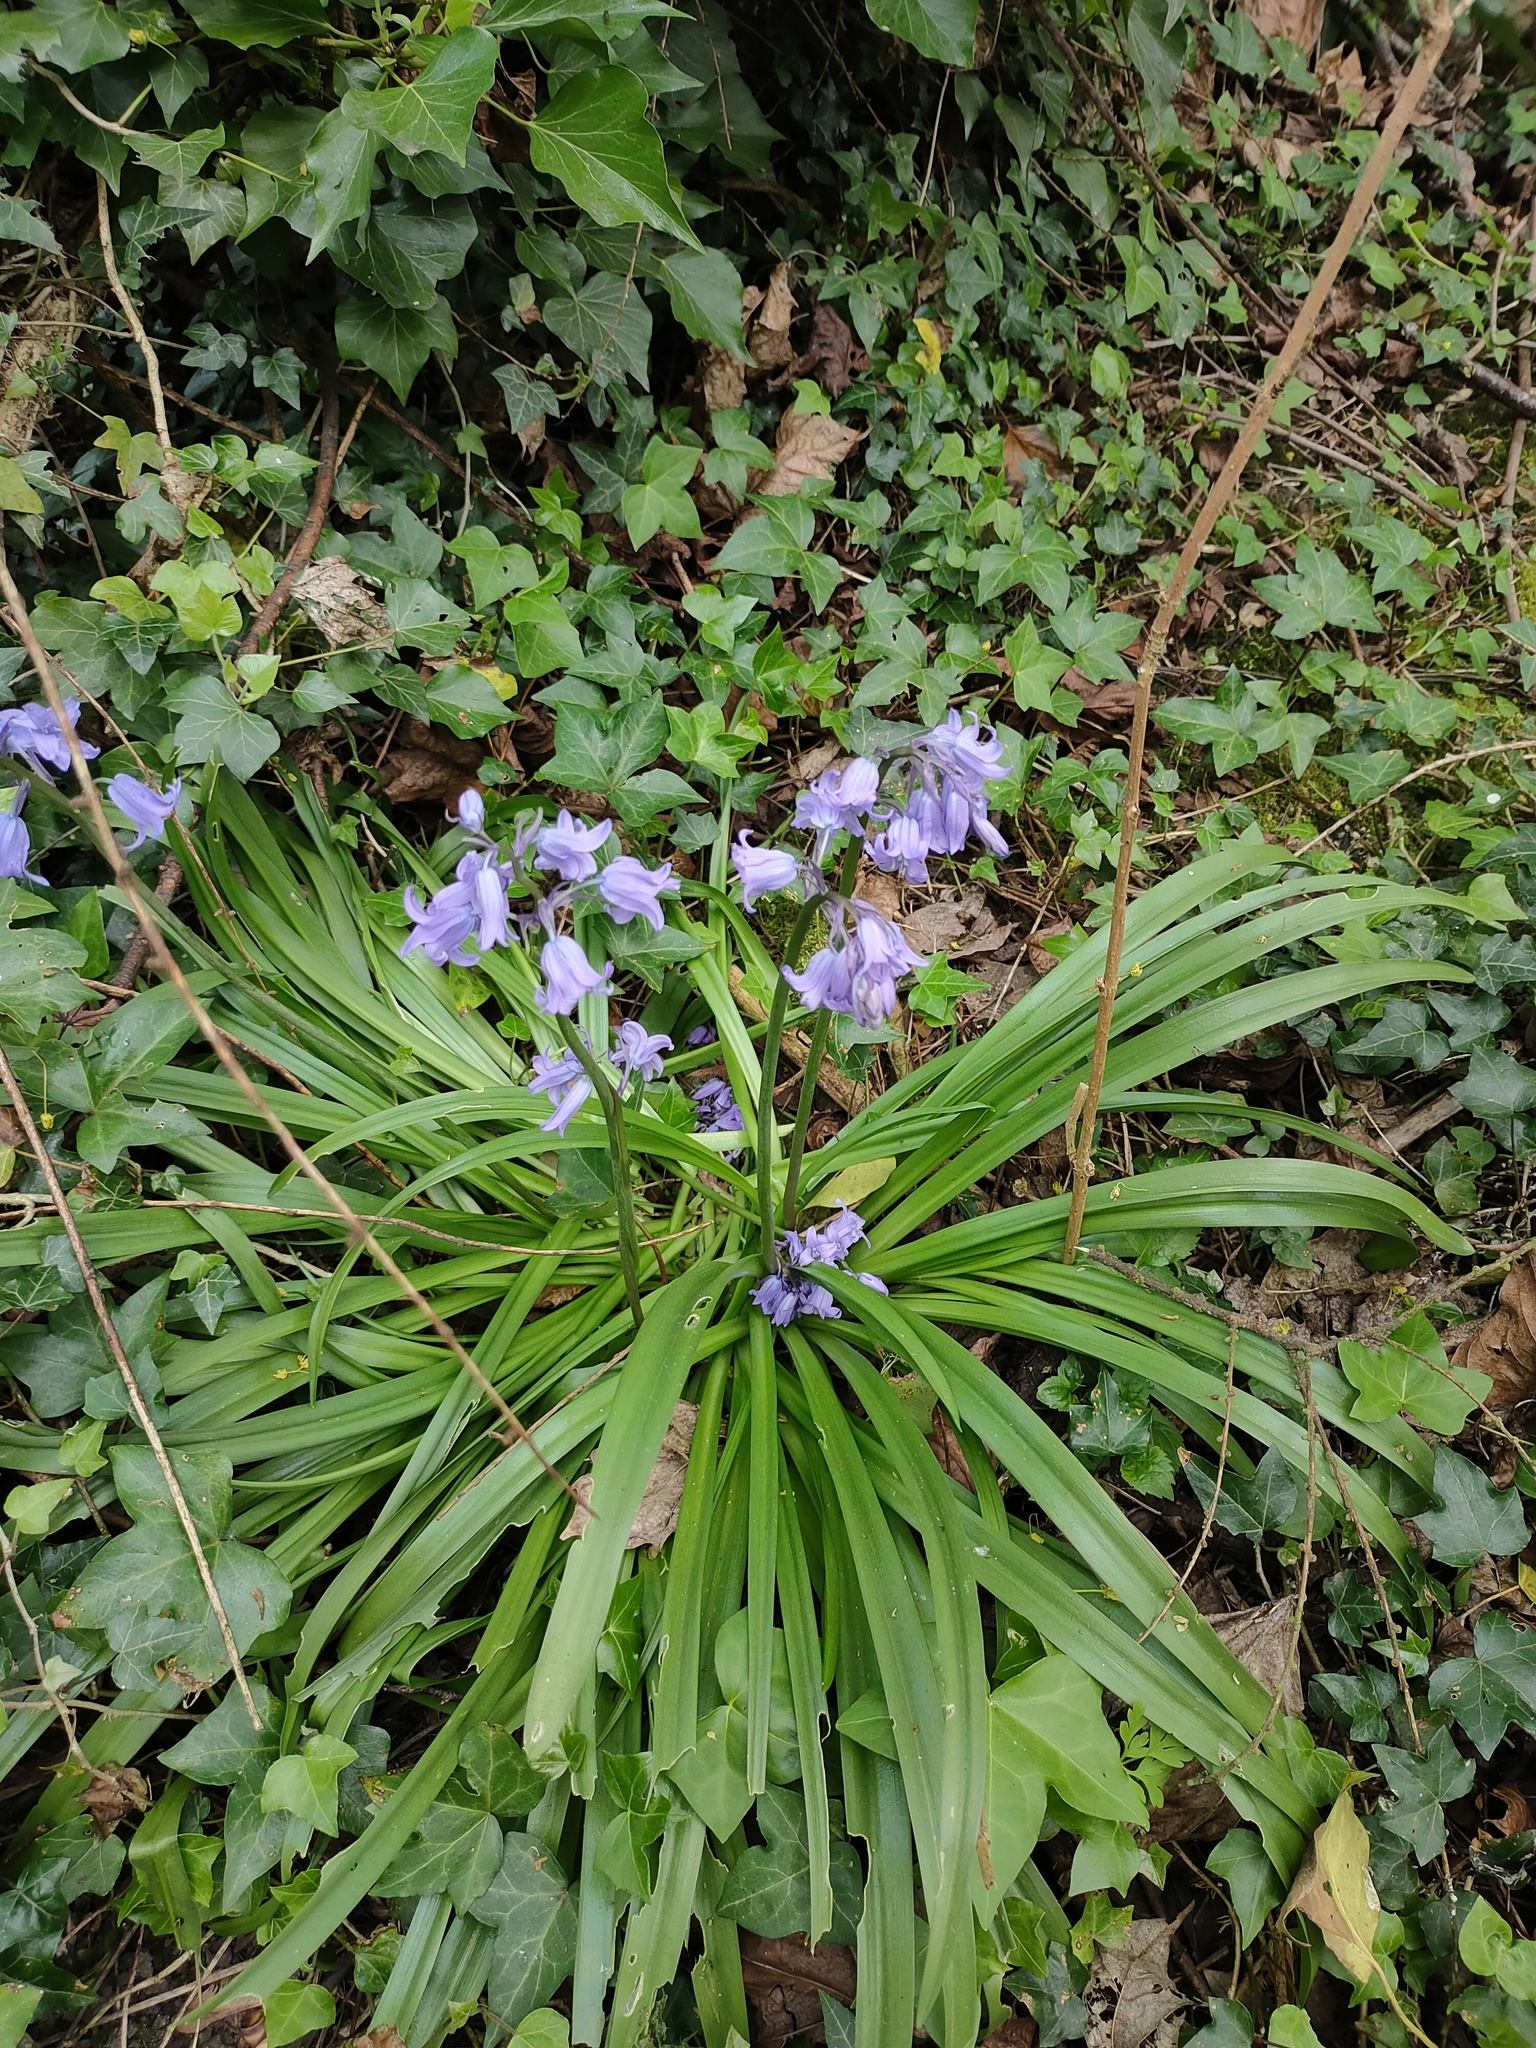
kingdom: Plantae
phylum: Tracheophyta
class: Liliopsida
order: Asparagales
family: Asparagaceae
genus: Hyacinthoides
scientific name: Hyacinthoides massartiana
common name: Hyacinthoides
